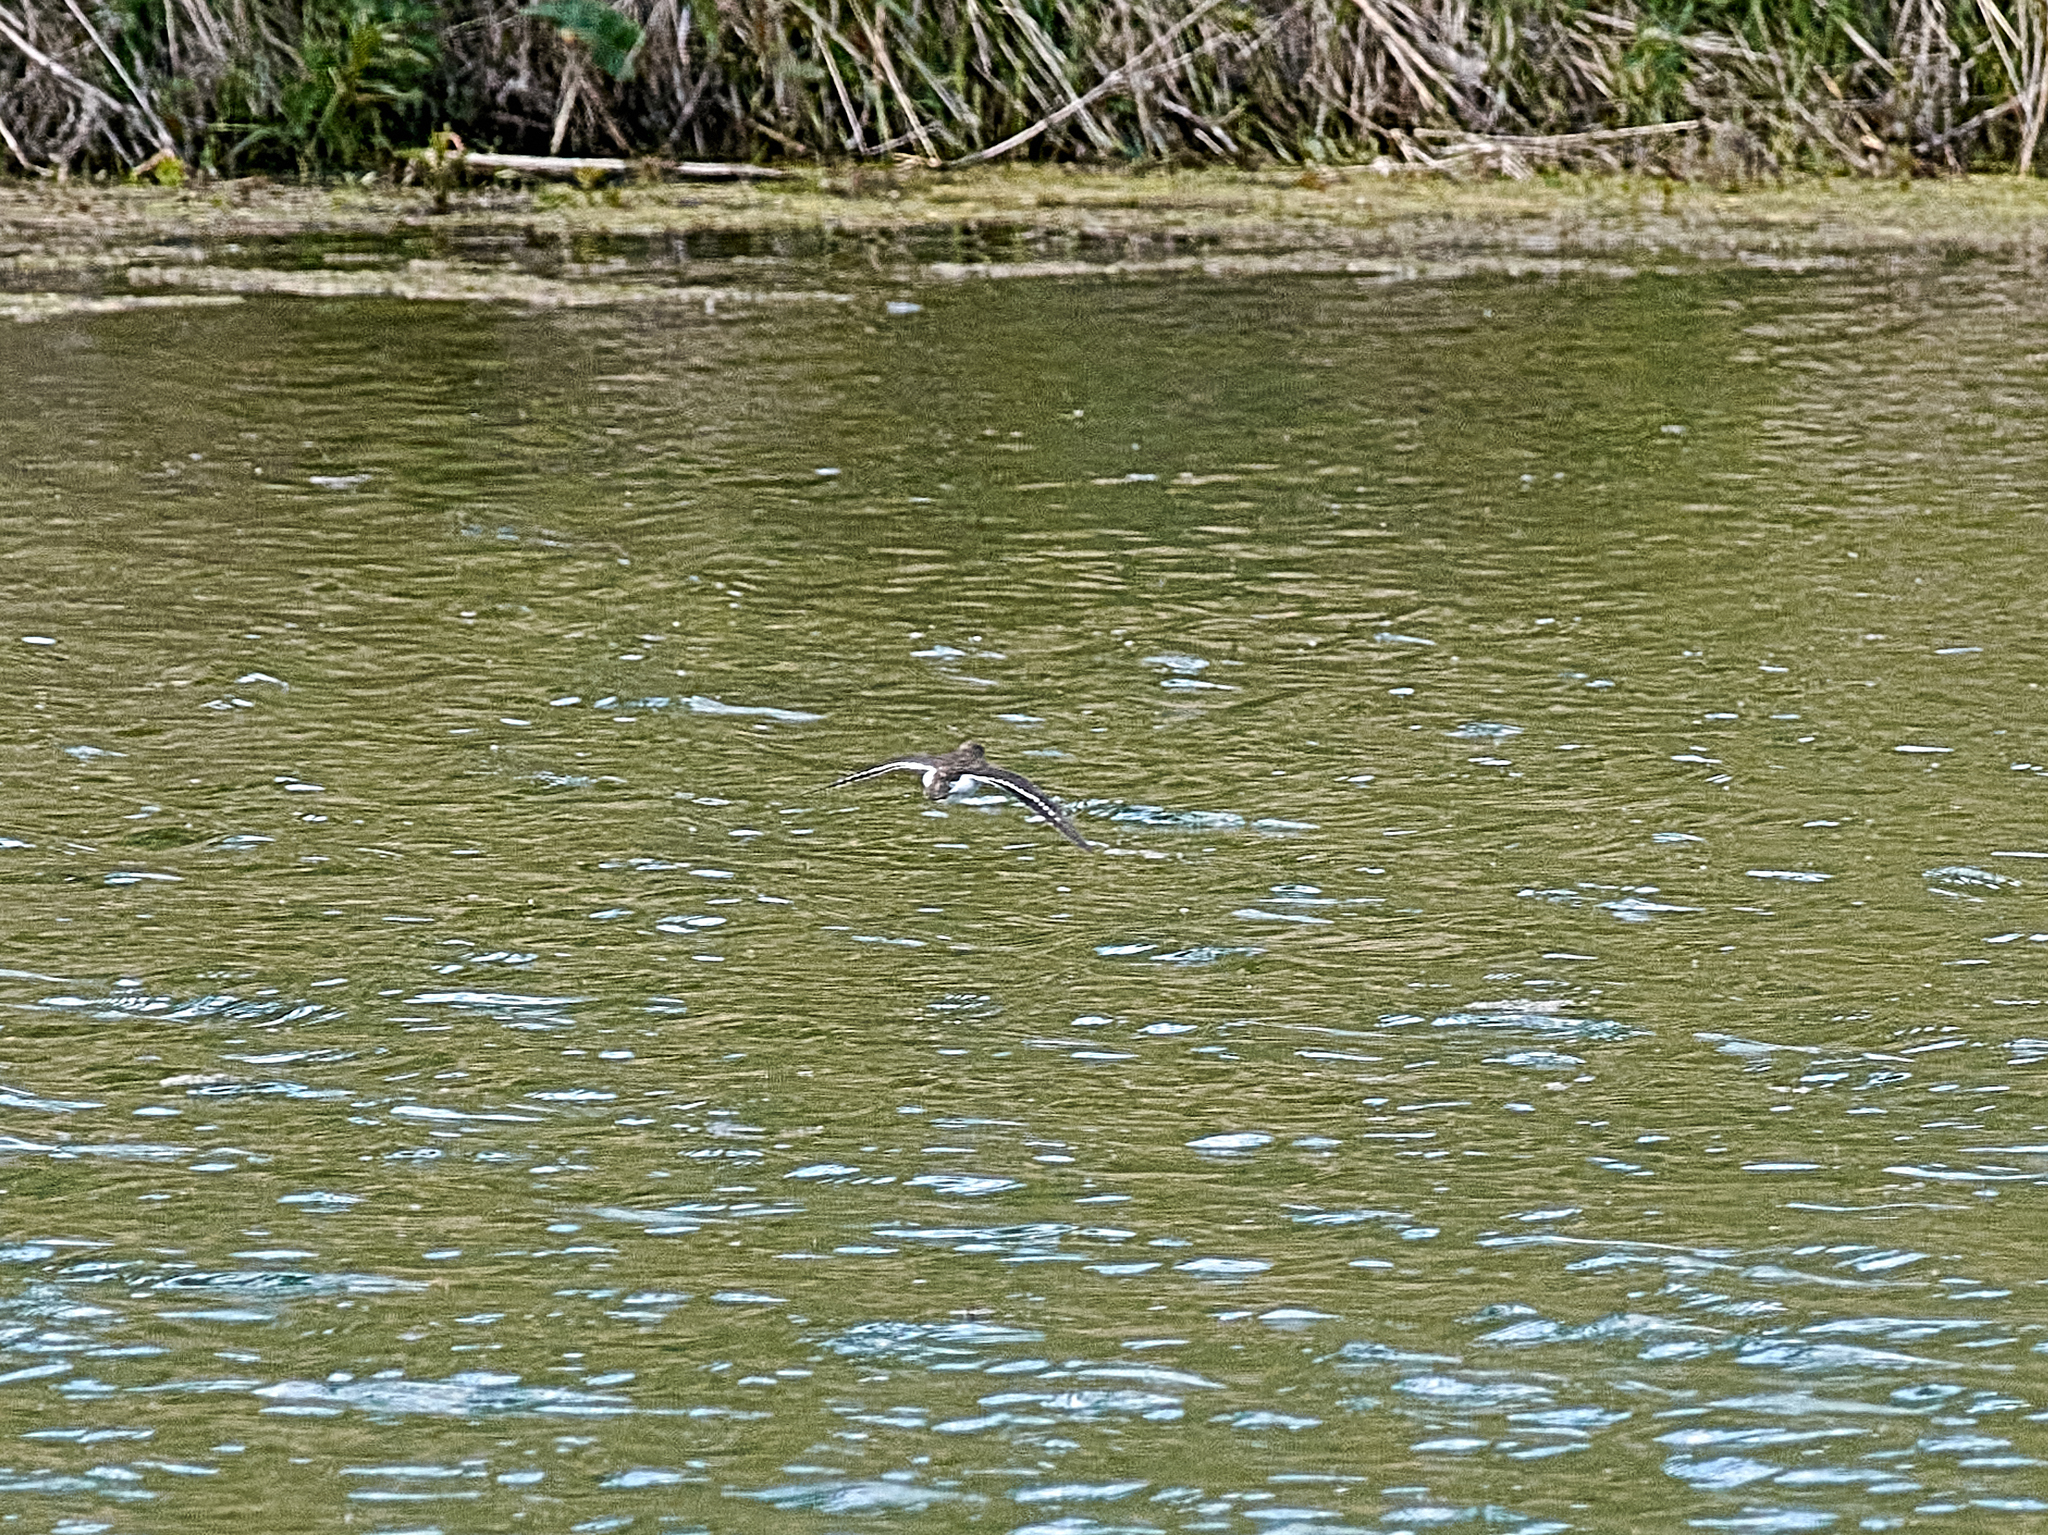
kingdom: Animalia
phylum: Chordata
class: Aves
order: Charadriiformes
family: Scolopacidae
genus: Actitis
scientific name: Actitis hypoleucos
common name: Common sandpiper
